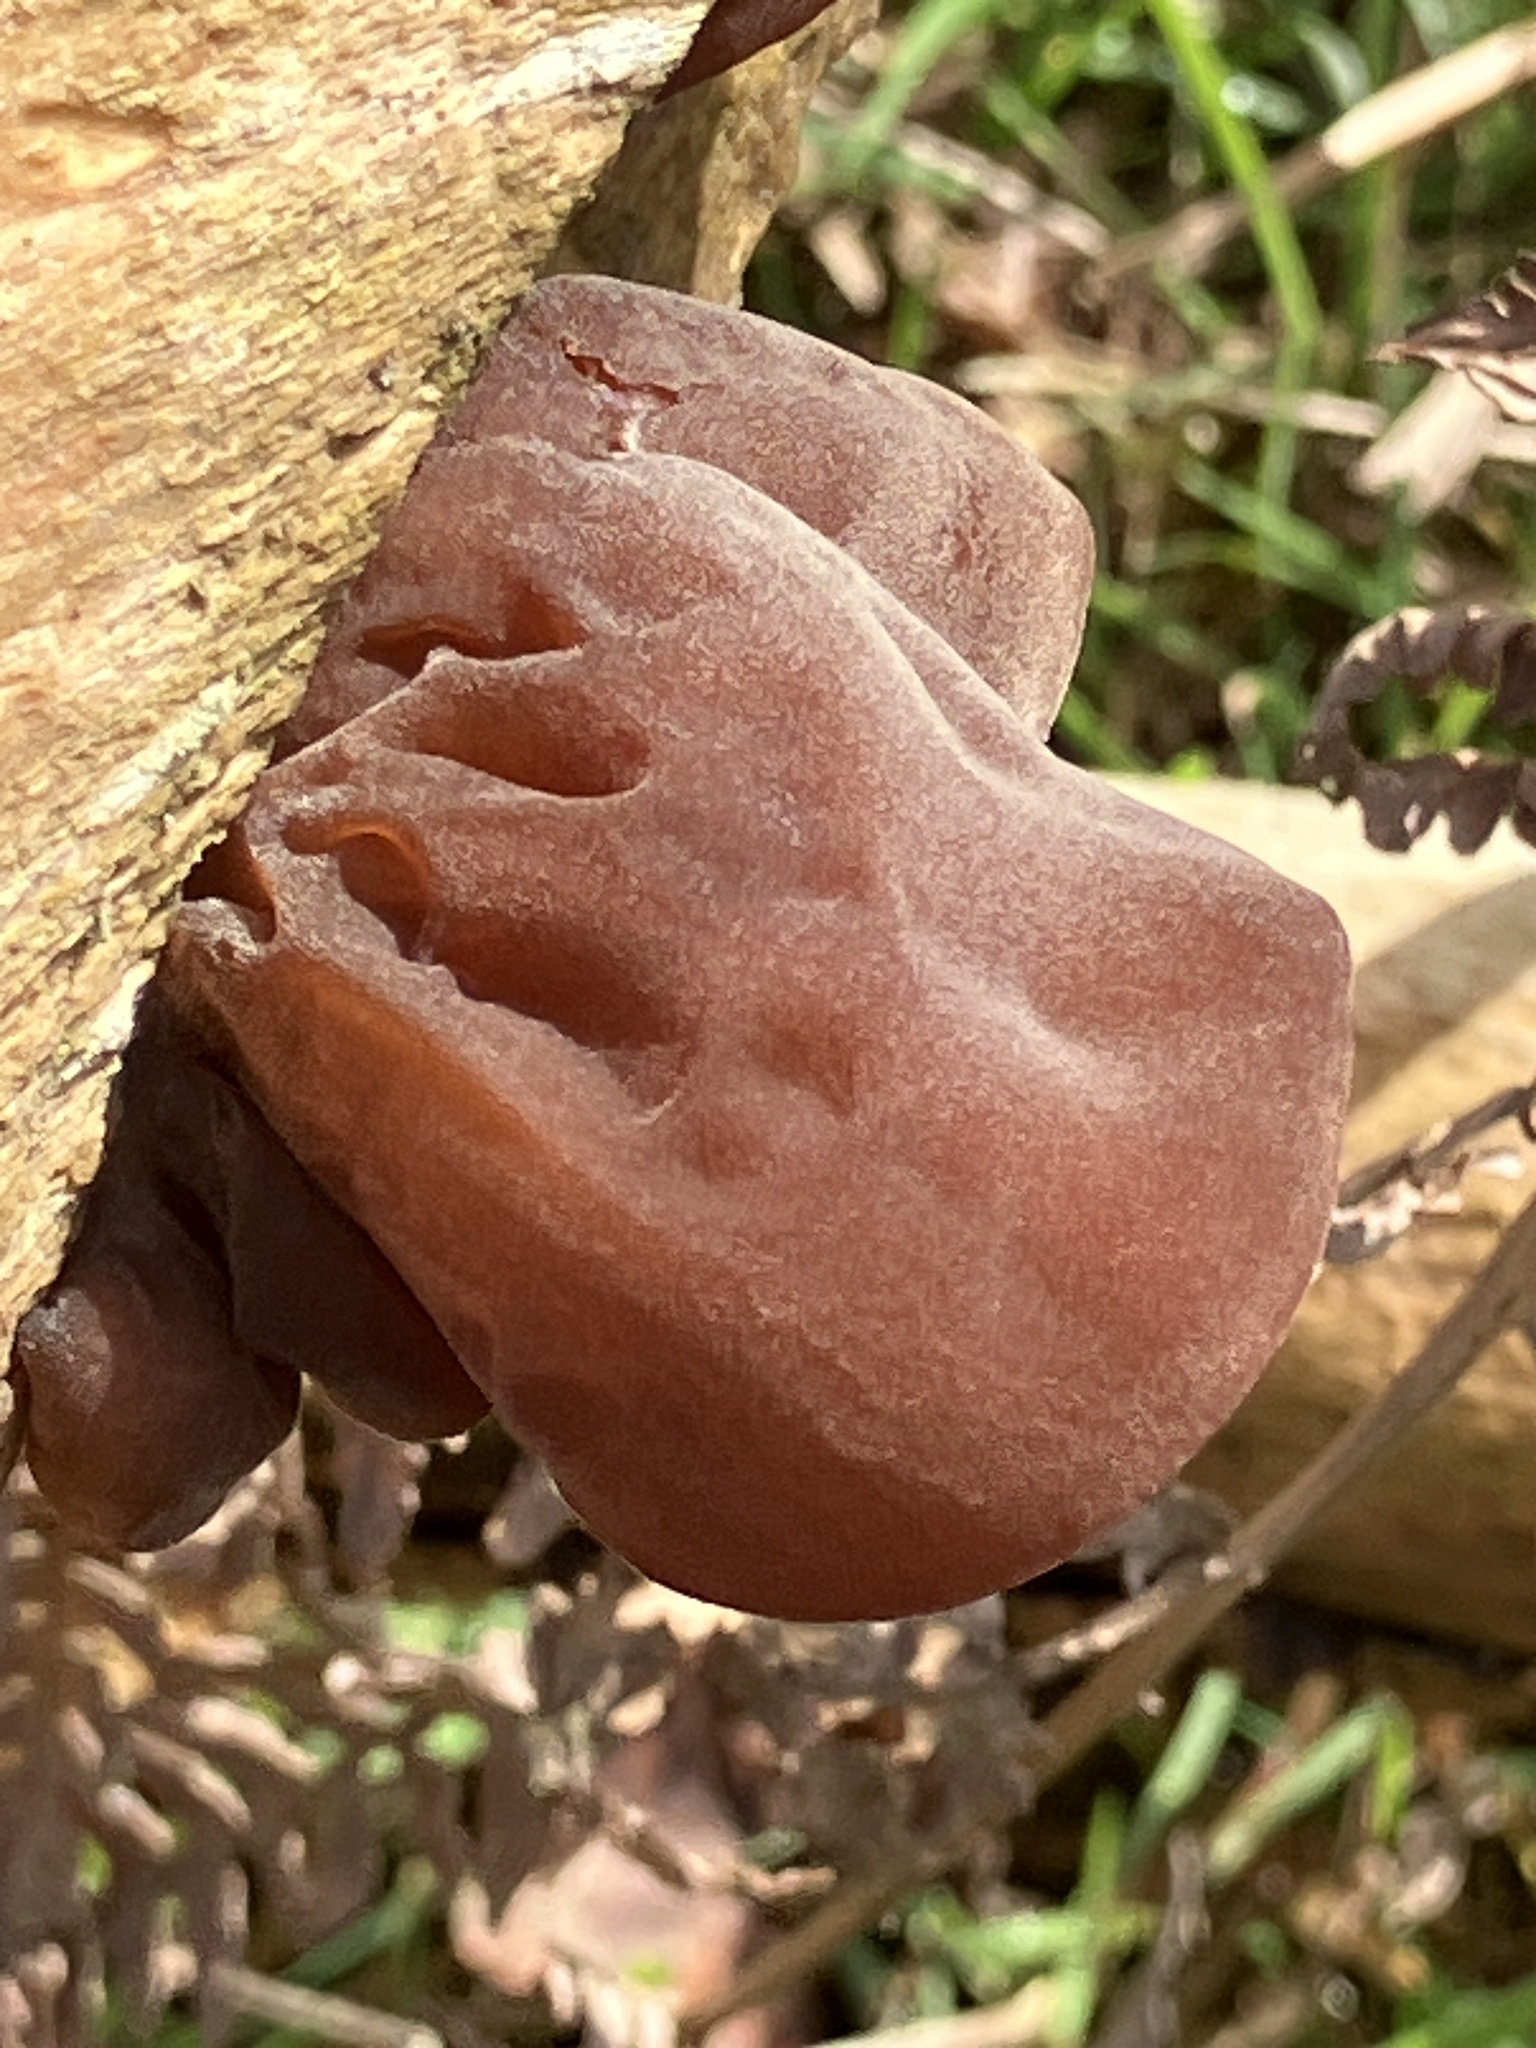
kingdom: Fungi
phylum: Basidiomycota
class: Agaricomycetes
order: Auriculariales
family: Auriculariaceae
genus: Auricularia
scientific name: Auricularia auricula-judae
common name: Jelly ear
